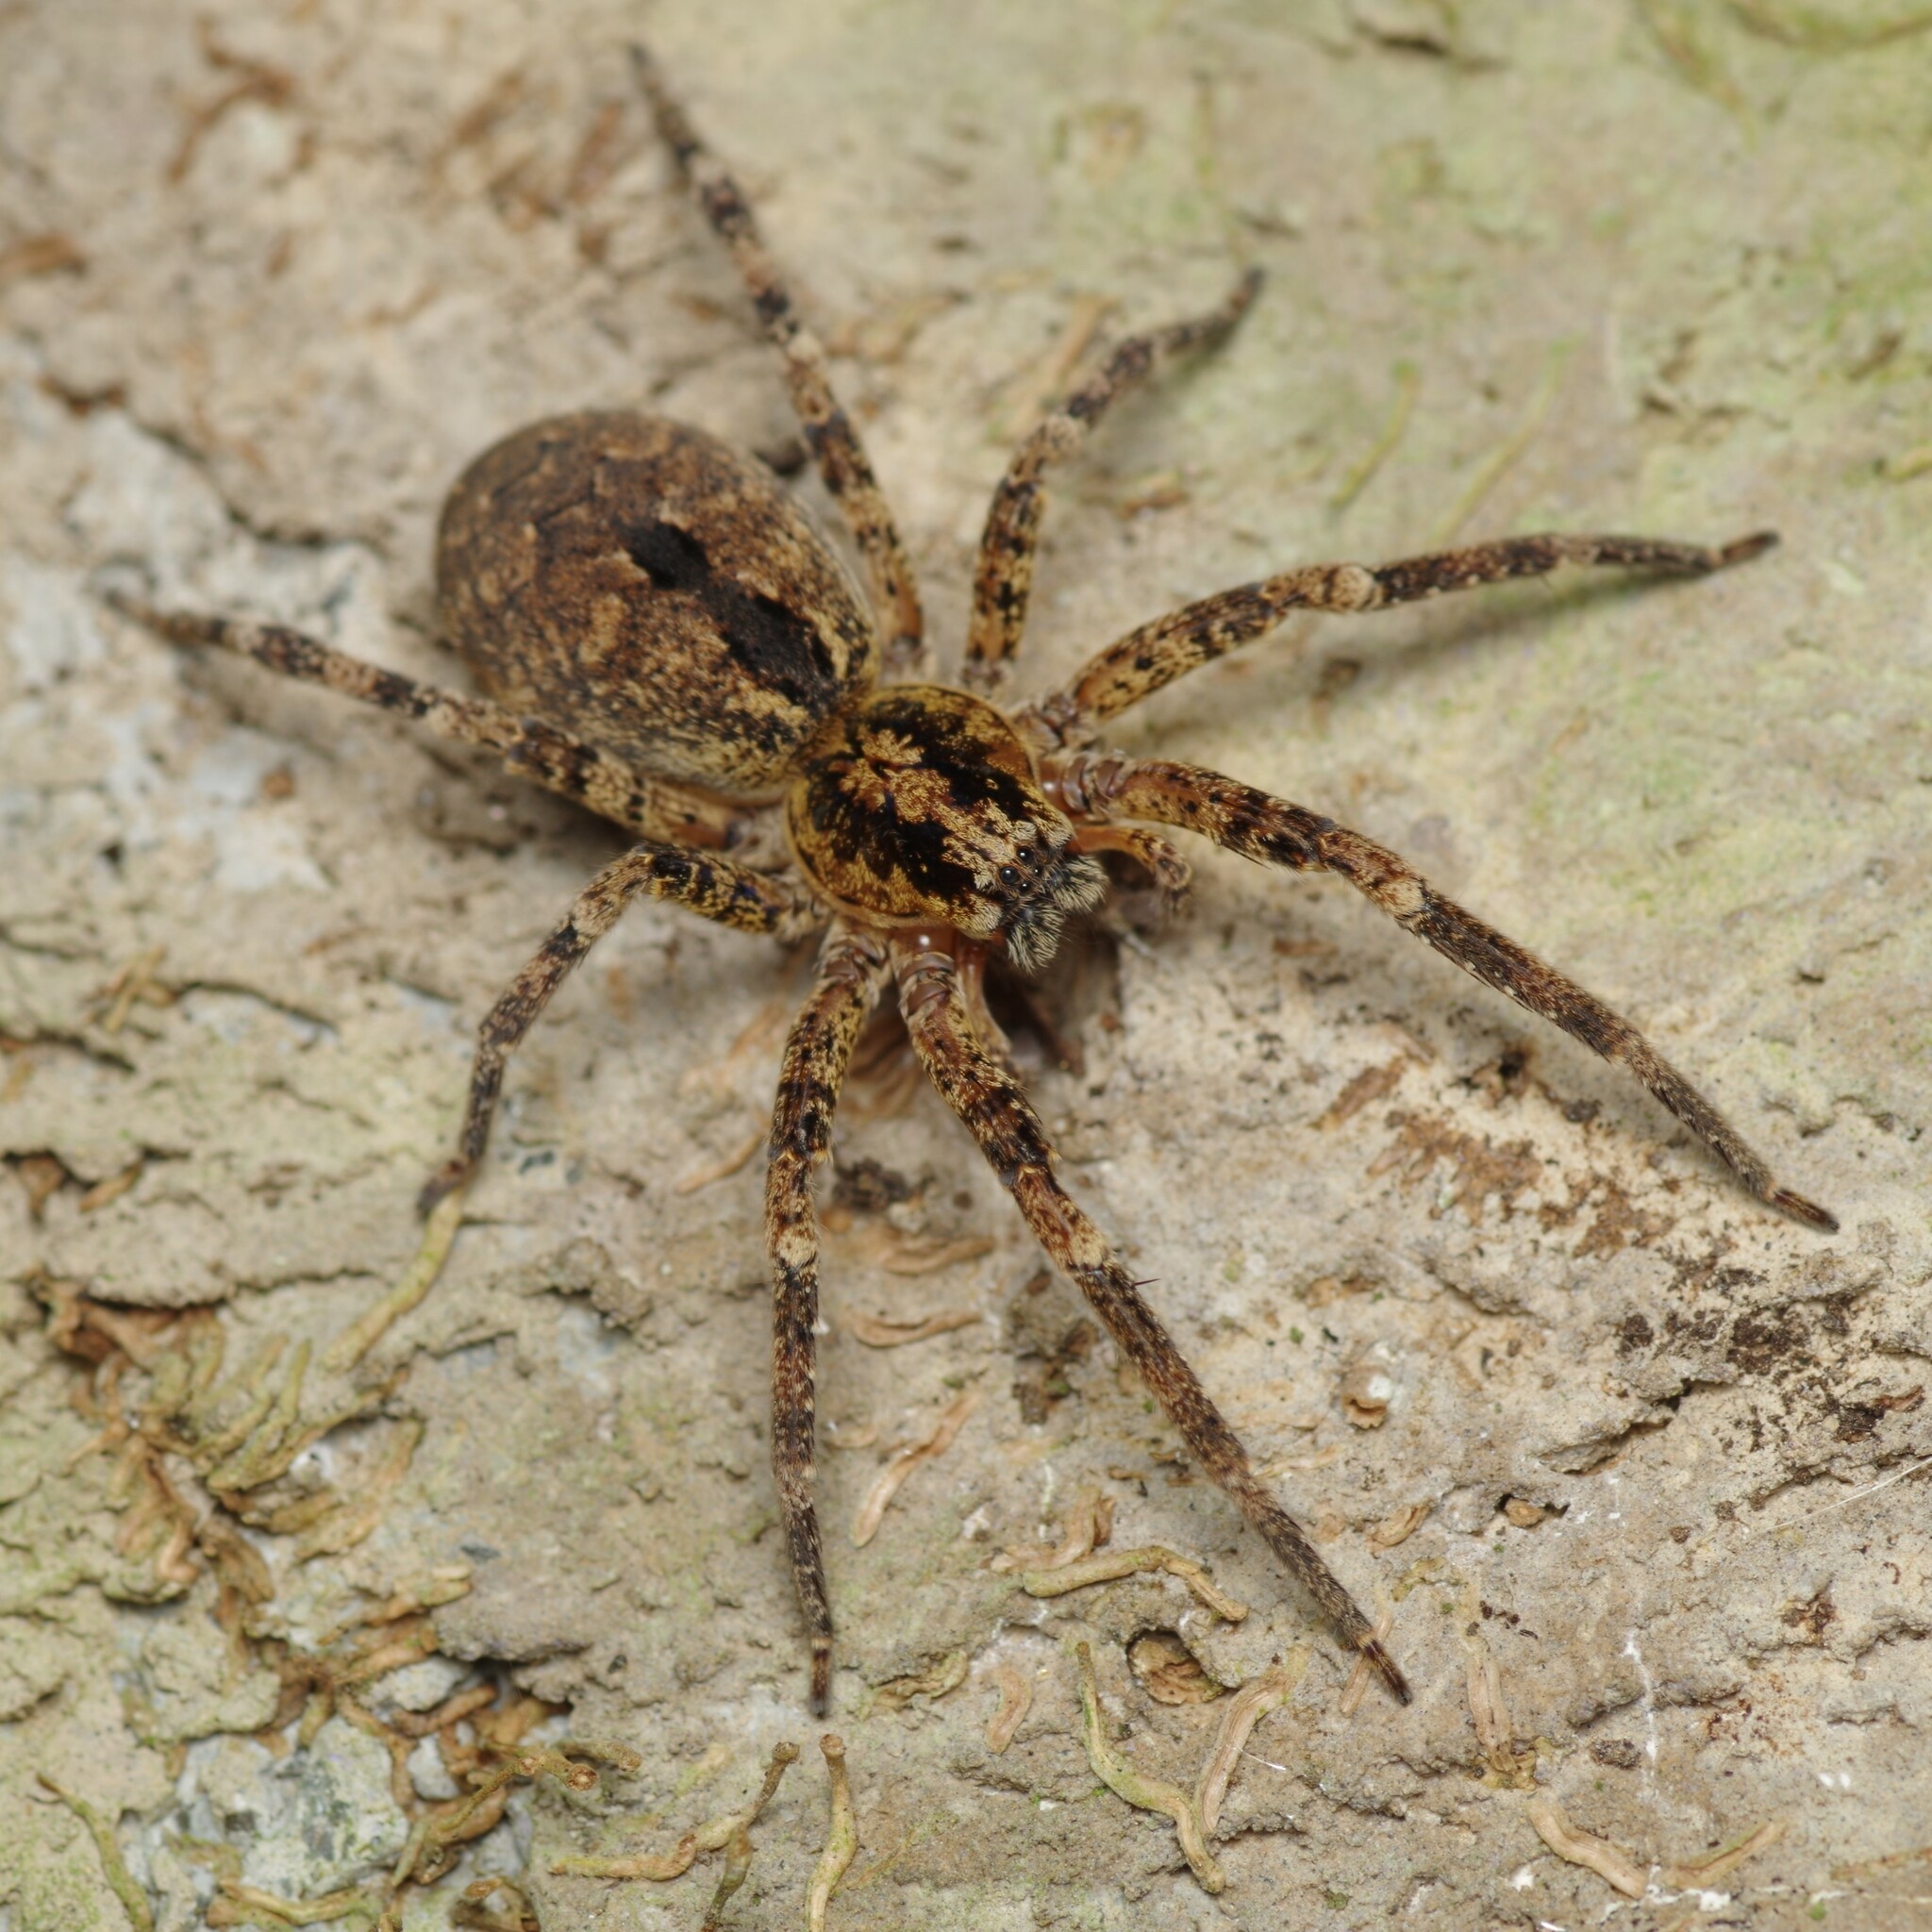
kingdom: Animalia
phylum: Arthropoda
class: Arachnida
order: Araneae
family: Zoropsidae
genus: Zoropsis
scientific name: Zoropsis spinimana
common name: Zoropsid spider
